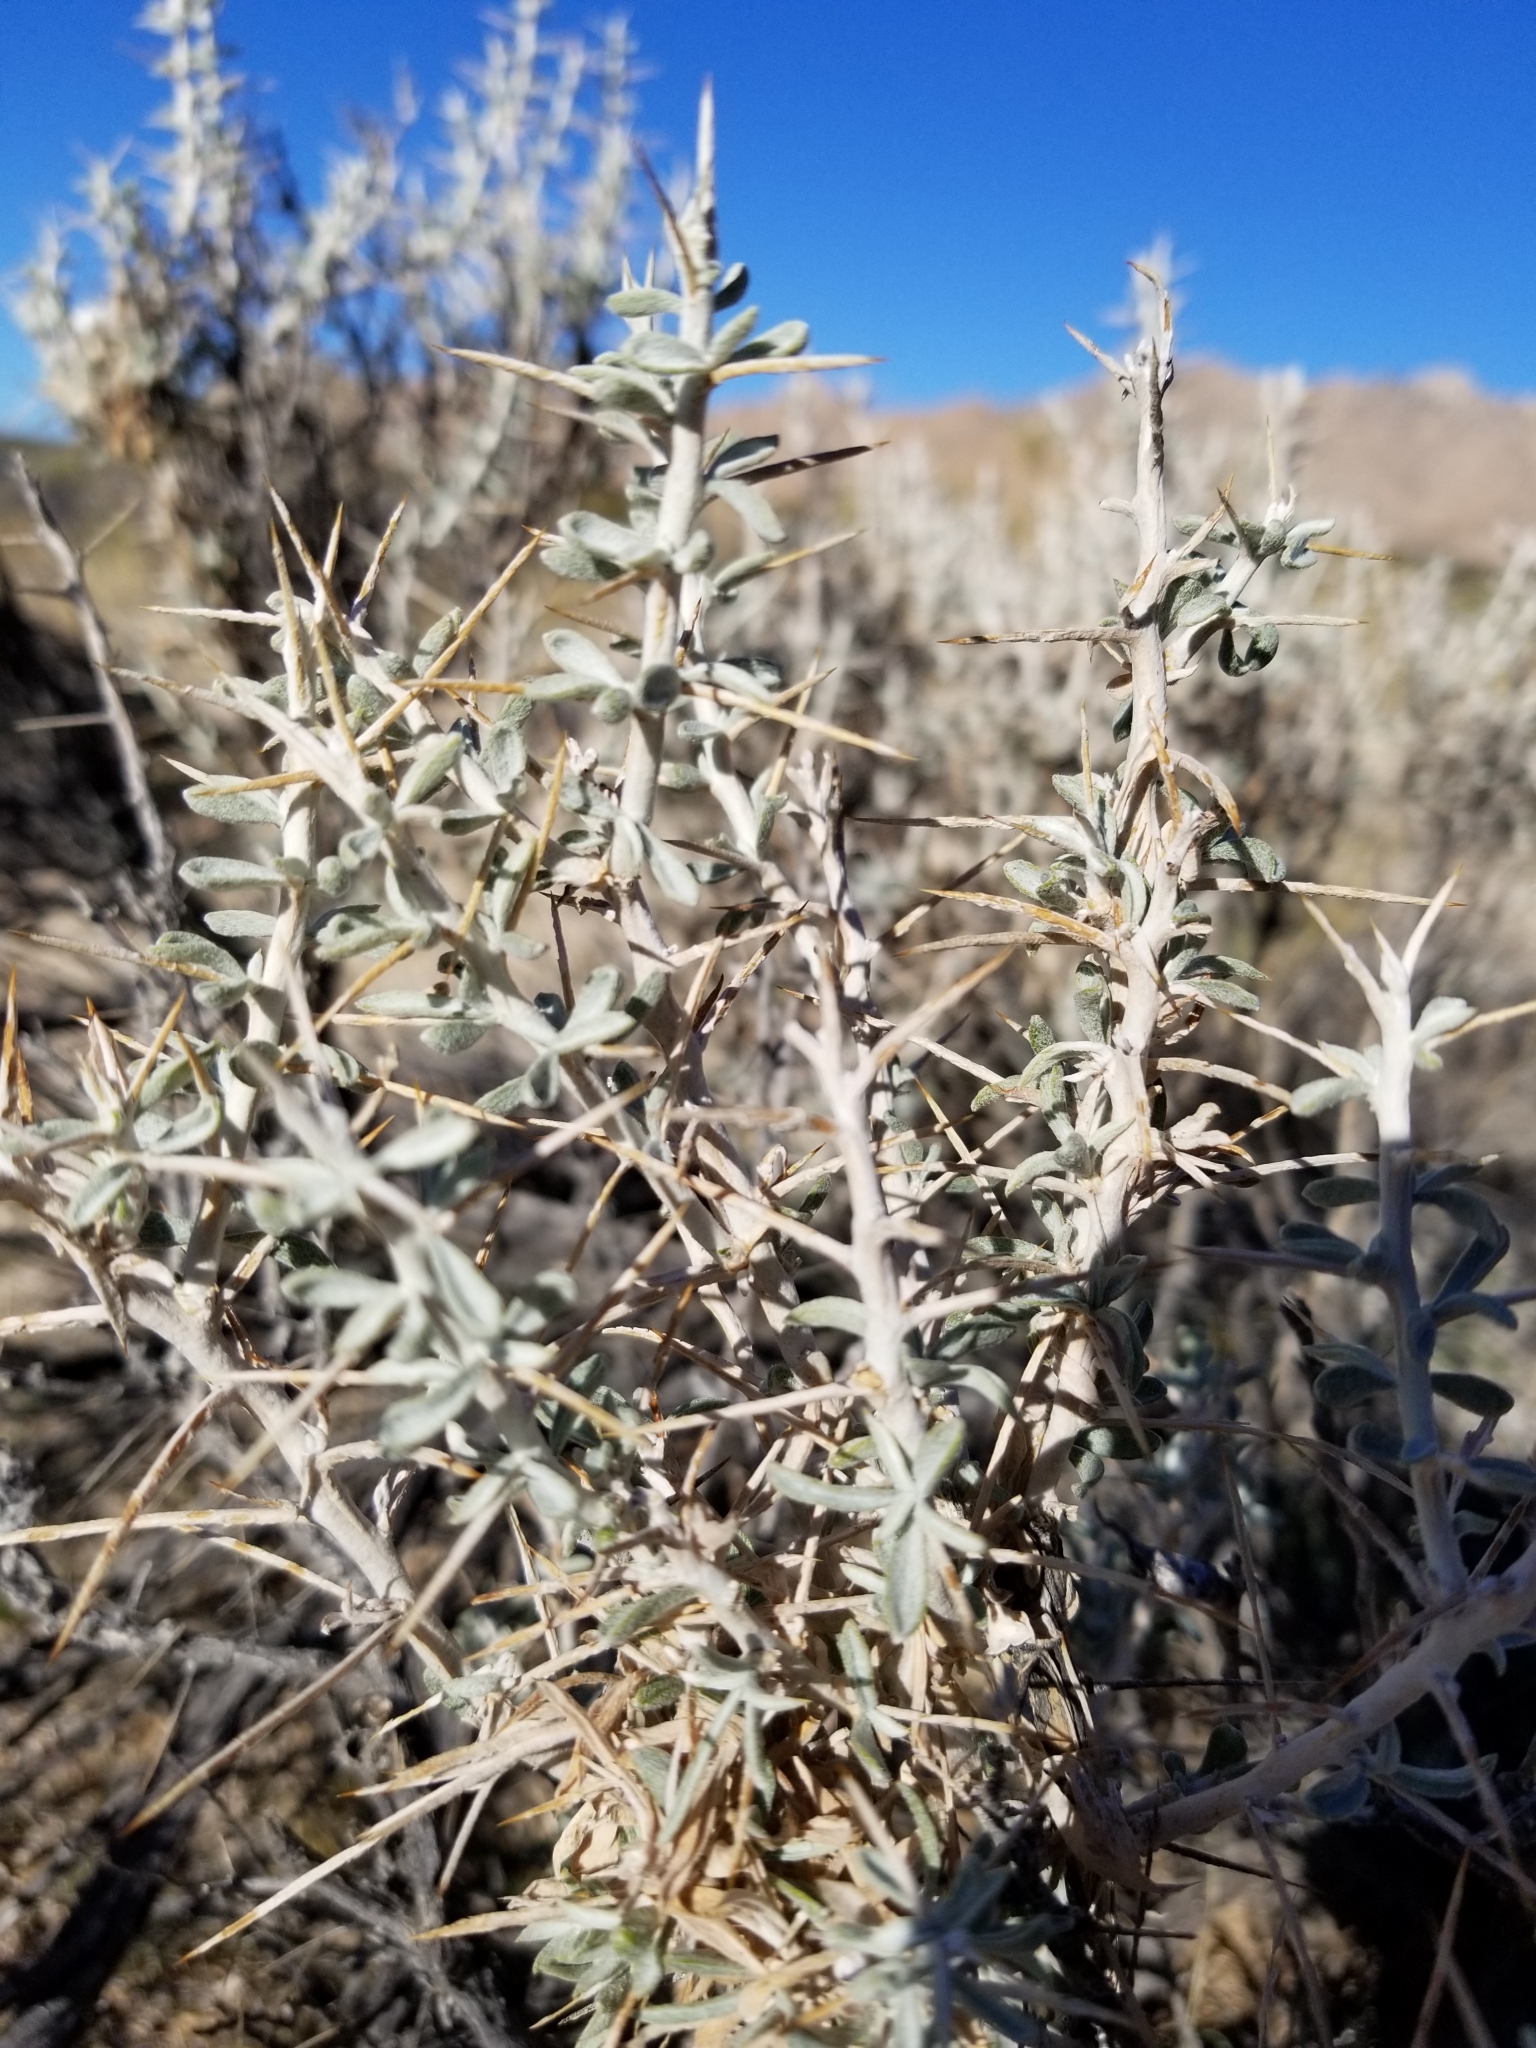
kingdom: Plantae
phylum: Tracheophyta
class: Magnoliopsida
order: Asterales
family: Asteraceae
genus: Tetradymia
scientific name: Tetradymia stenolepis
